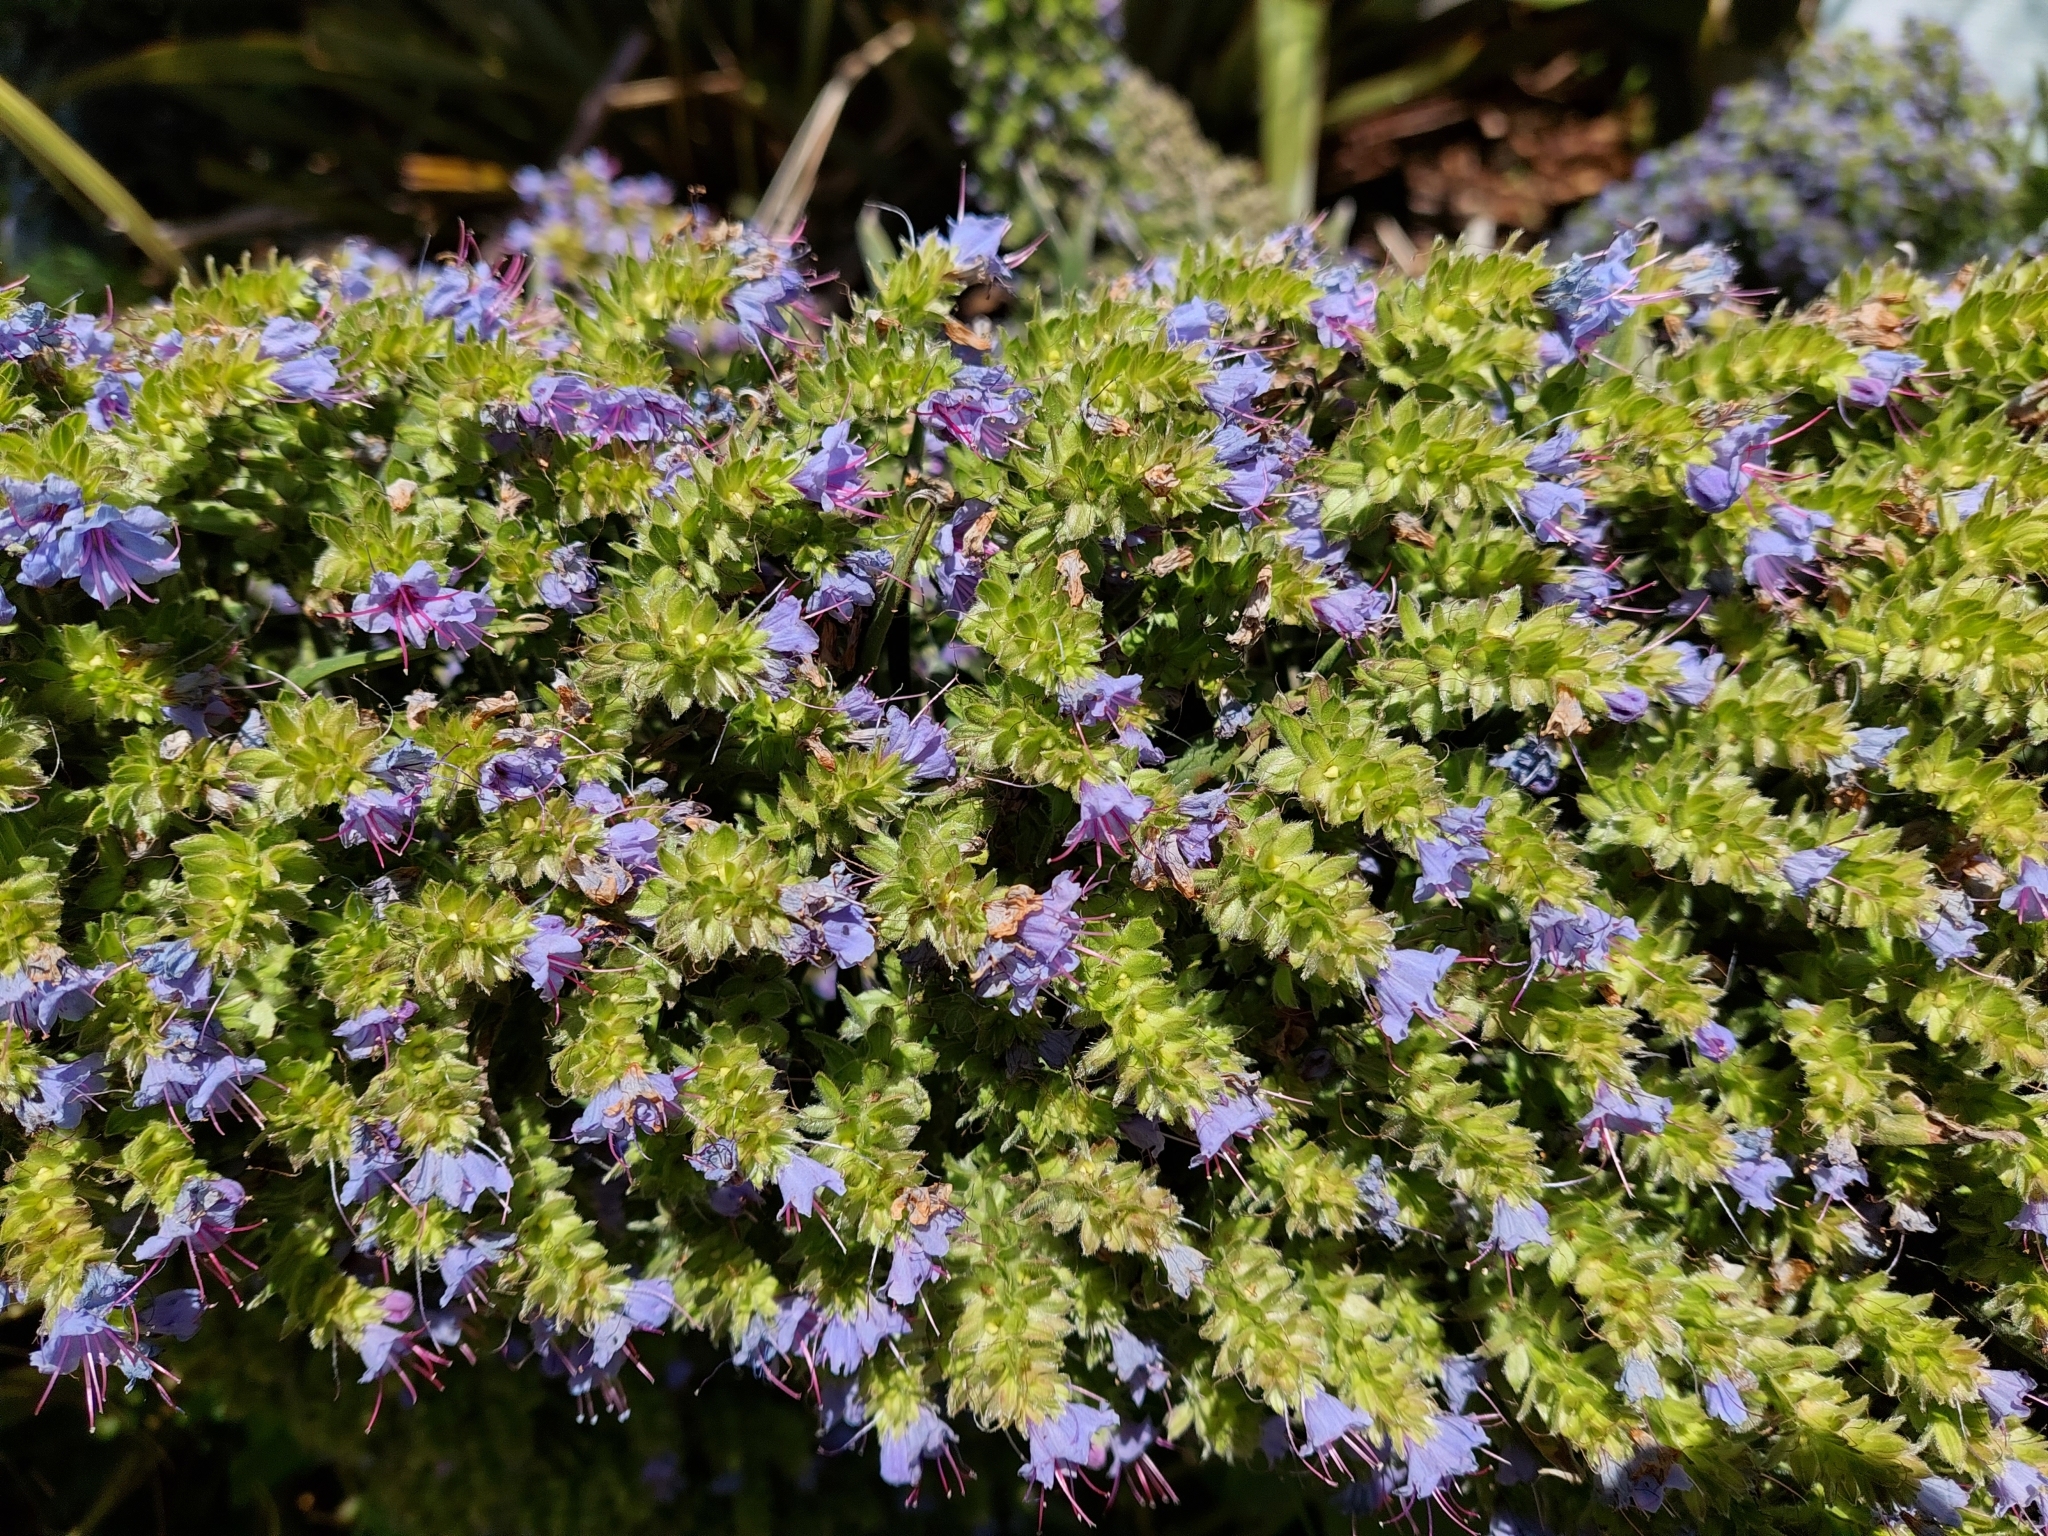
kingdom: Plantae
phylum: Tracheophyta
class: Magnoliopsida
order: Boraginales
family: Boraginaceae
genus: Echium
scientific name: Echium pininana
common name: Giant viper's-bugloss
